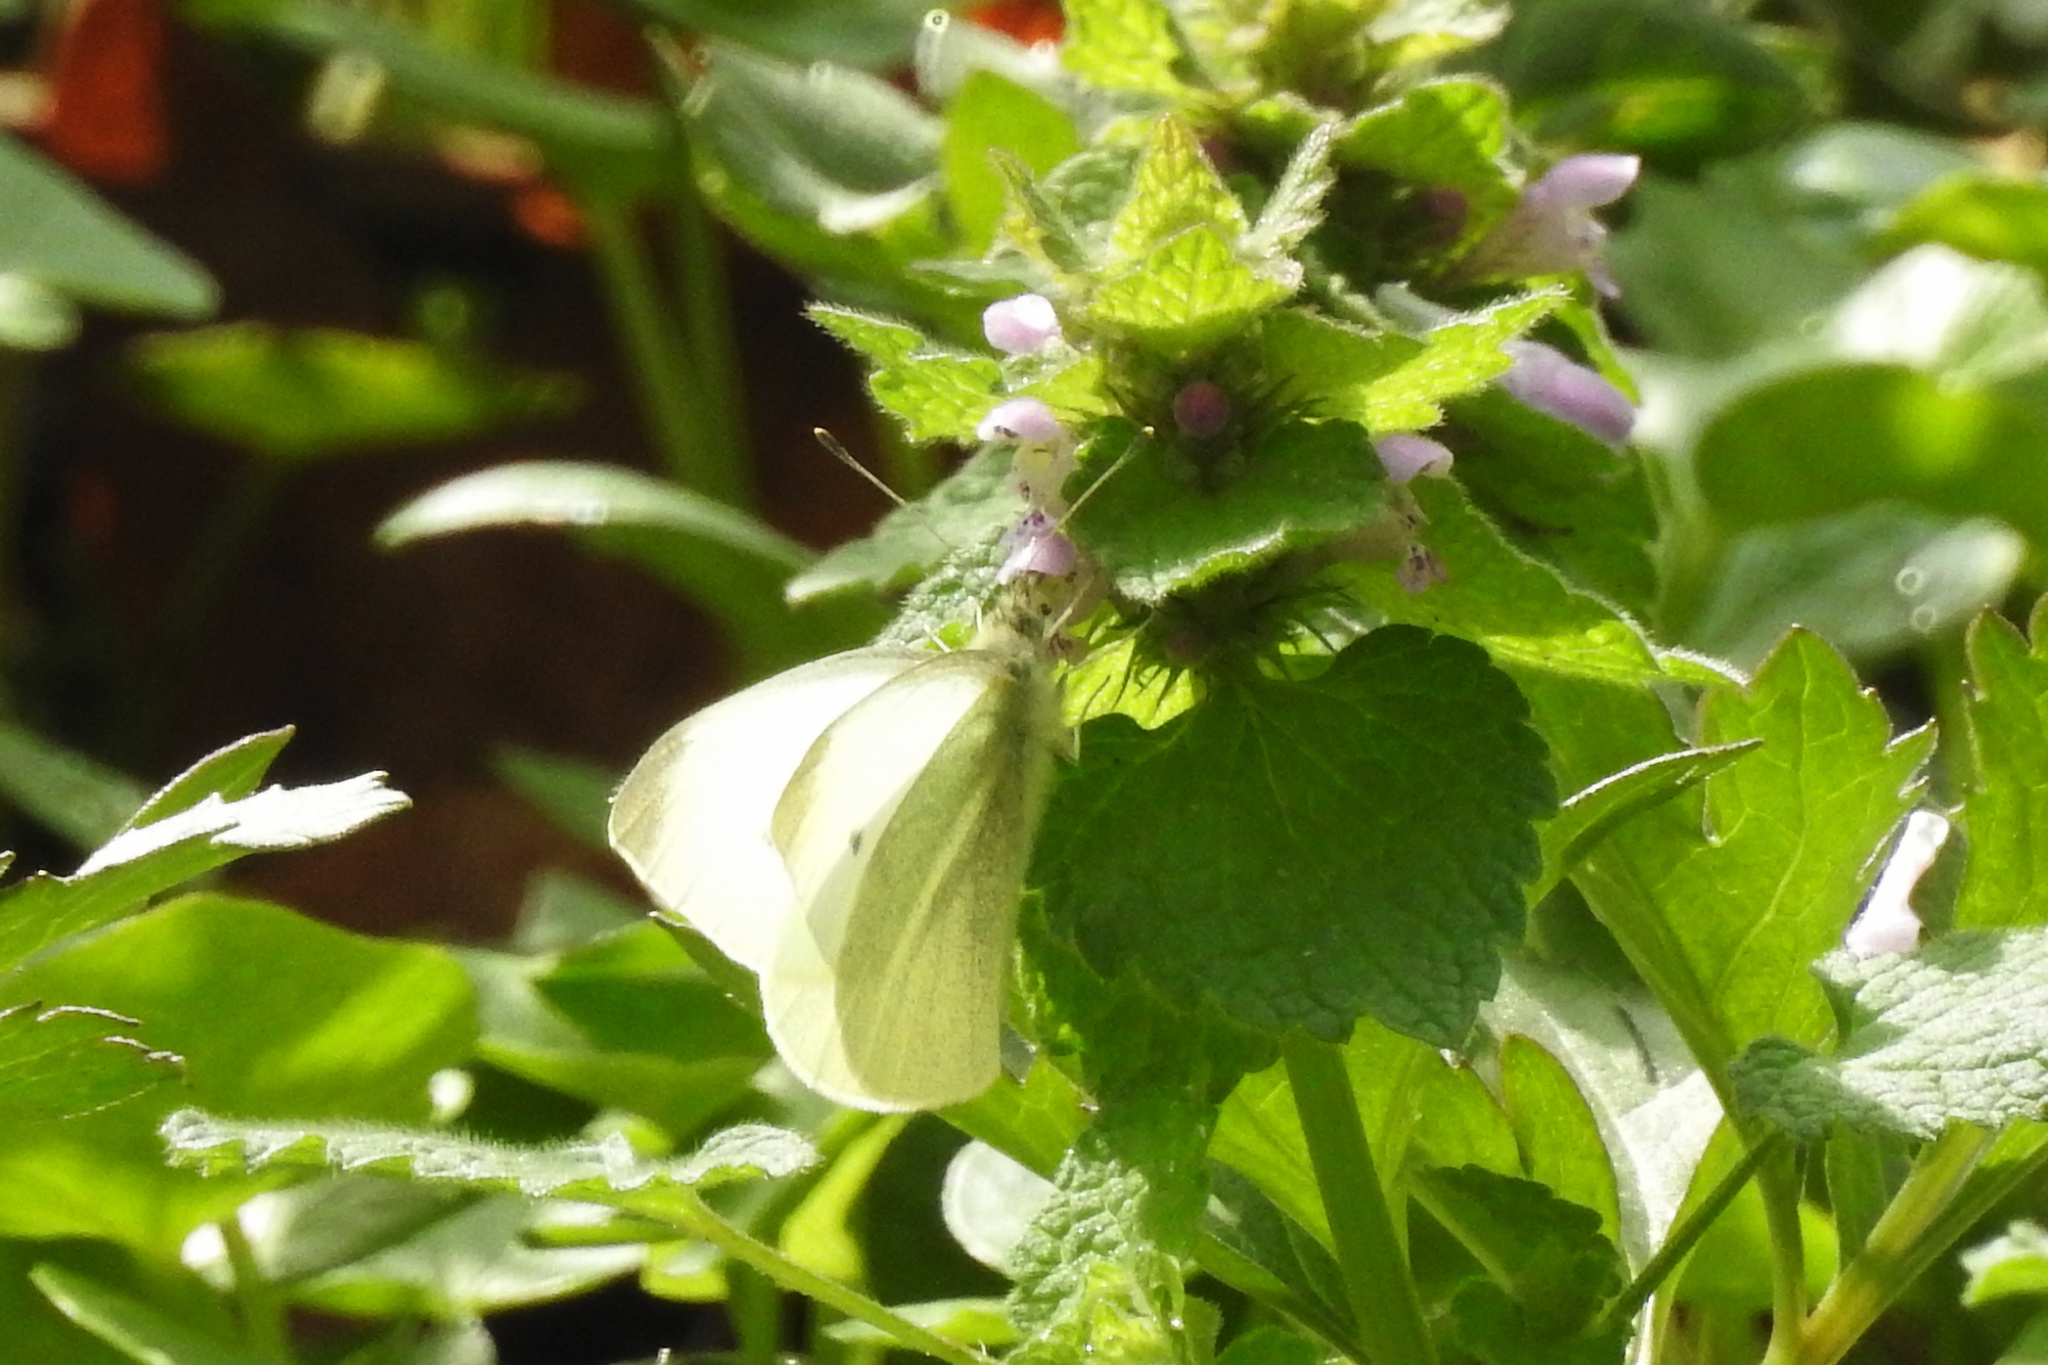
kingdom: Animalia
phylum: Arthropoda
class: Insecta
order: Lepidoptera
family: Pieridae
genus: Pieris
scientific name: Pieris rapae
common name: Small white
